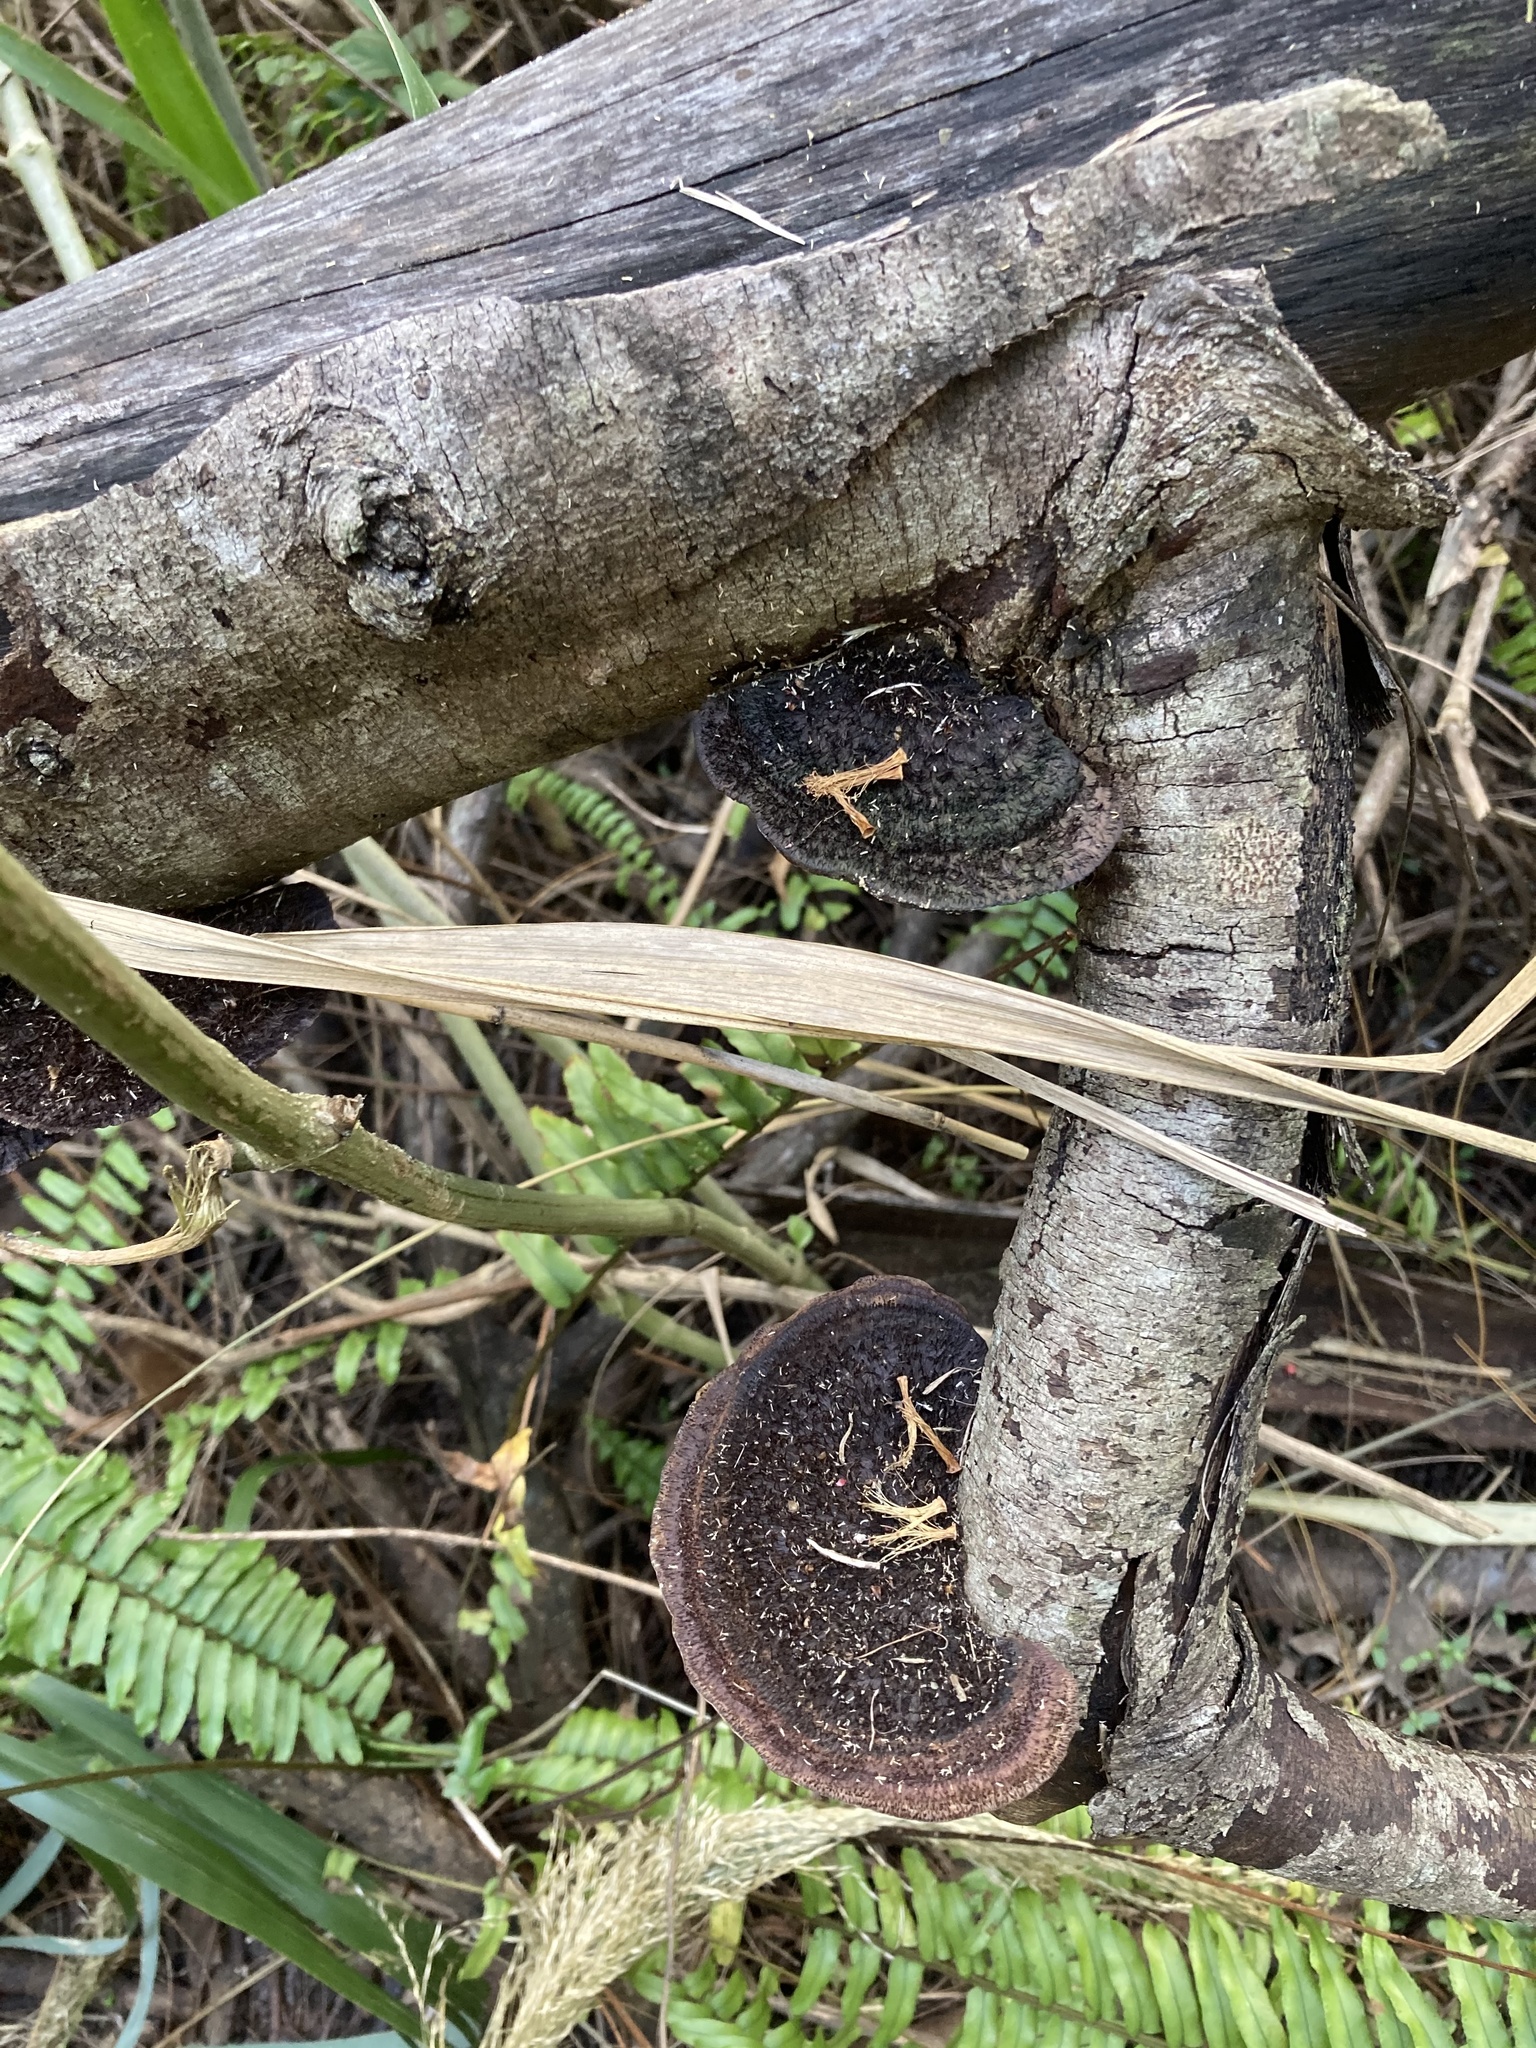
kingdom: Fungi
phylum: Basidiomycota
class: Agaricomycetes
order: Polyporales
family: Cerrenaceae
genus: Cerrena
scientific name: Cerrena hydnoides
